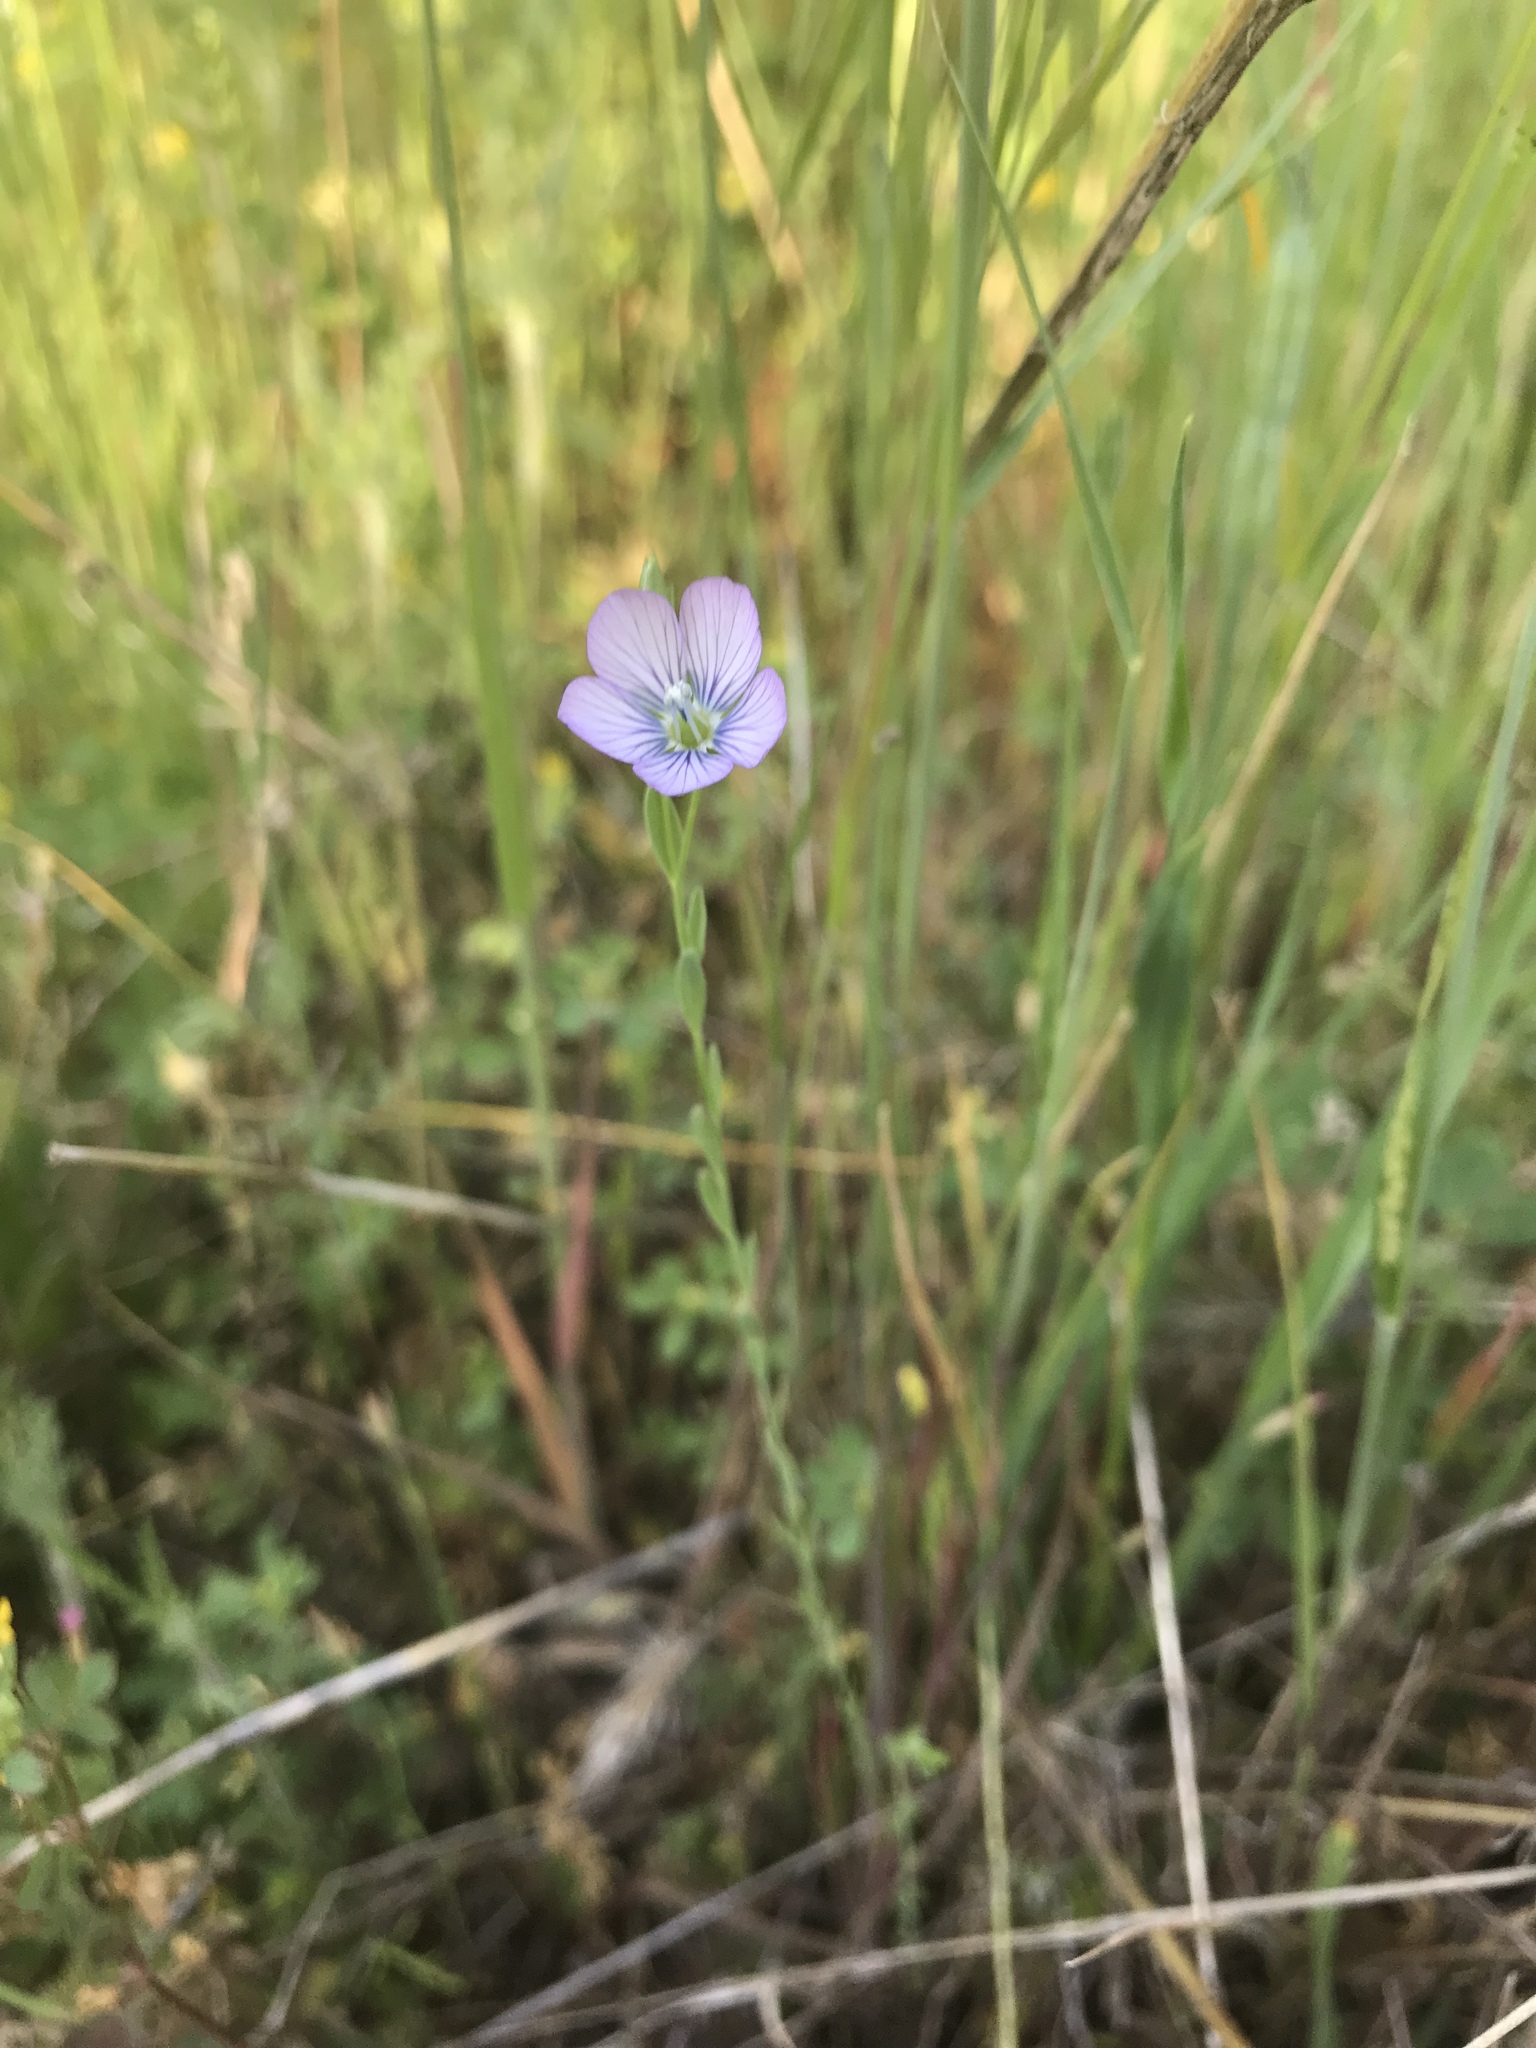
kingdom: Plantae
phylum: Tracheophyta
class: Magnoliopsida
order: Malpighiales
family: Linaceae
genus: Linum
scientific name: Linum bienne
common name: Pale flax
